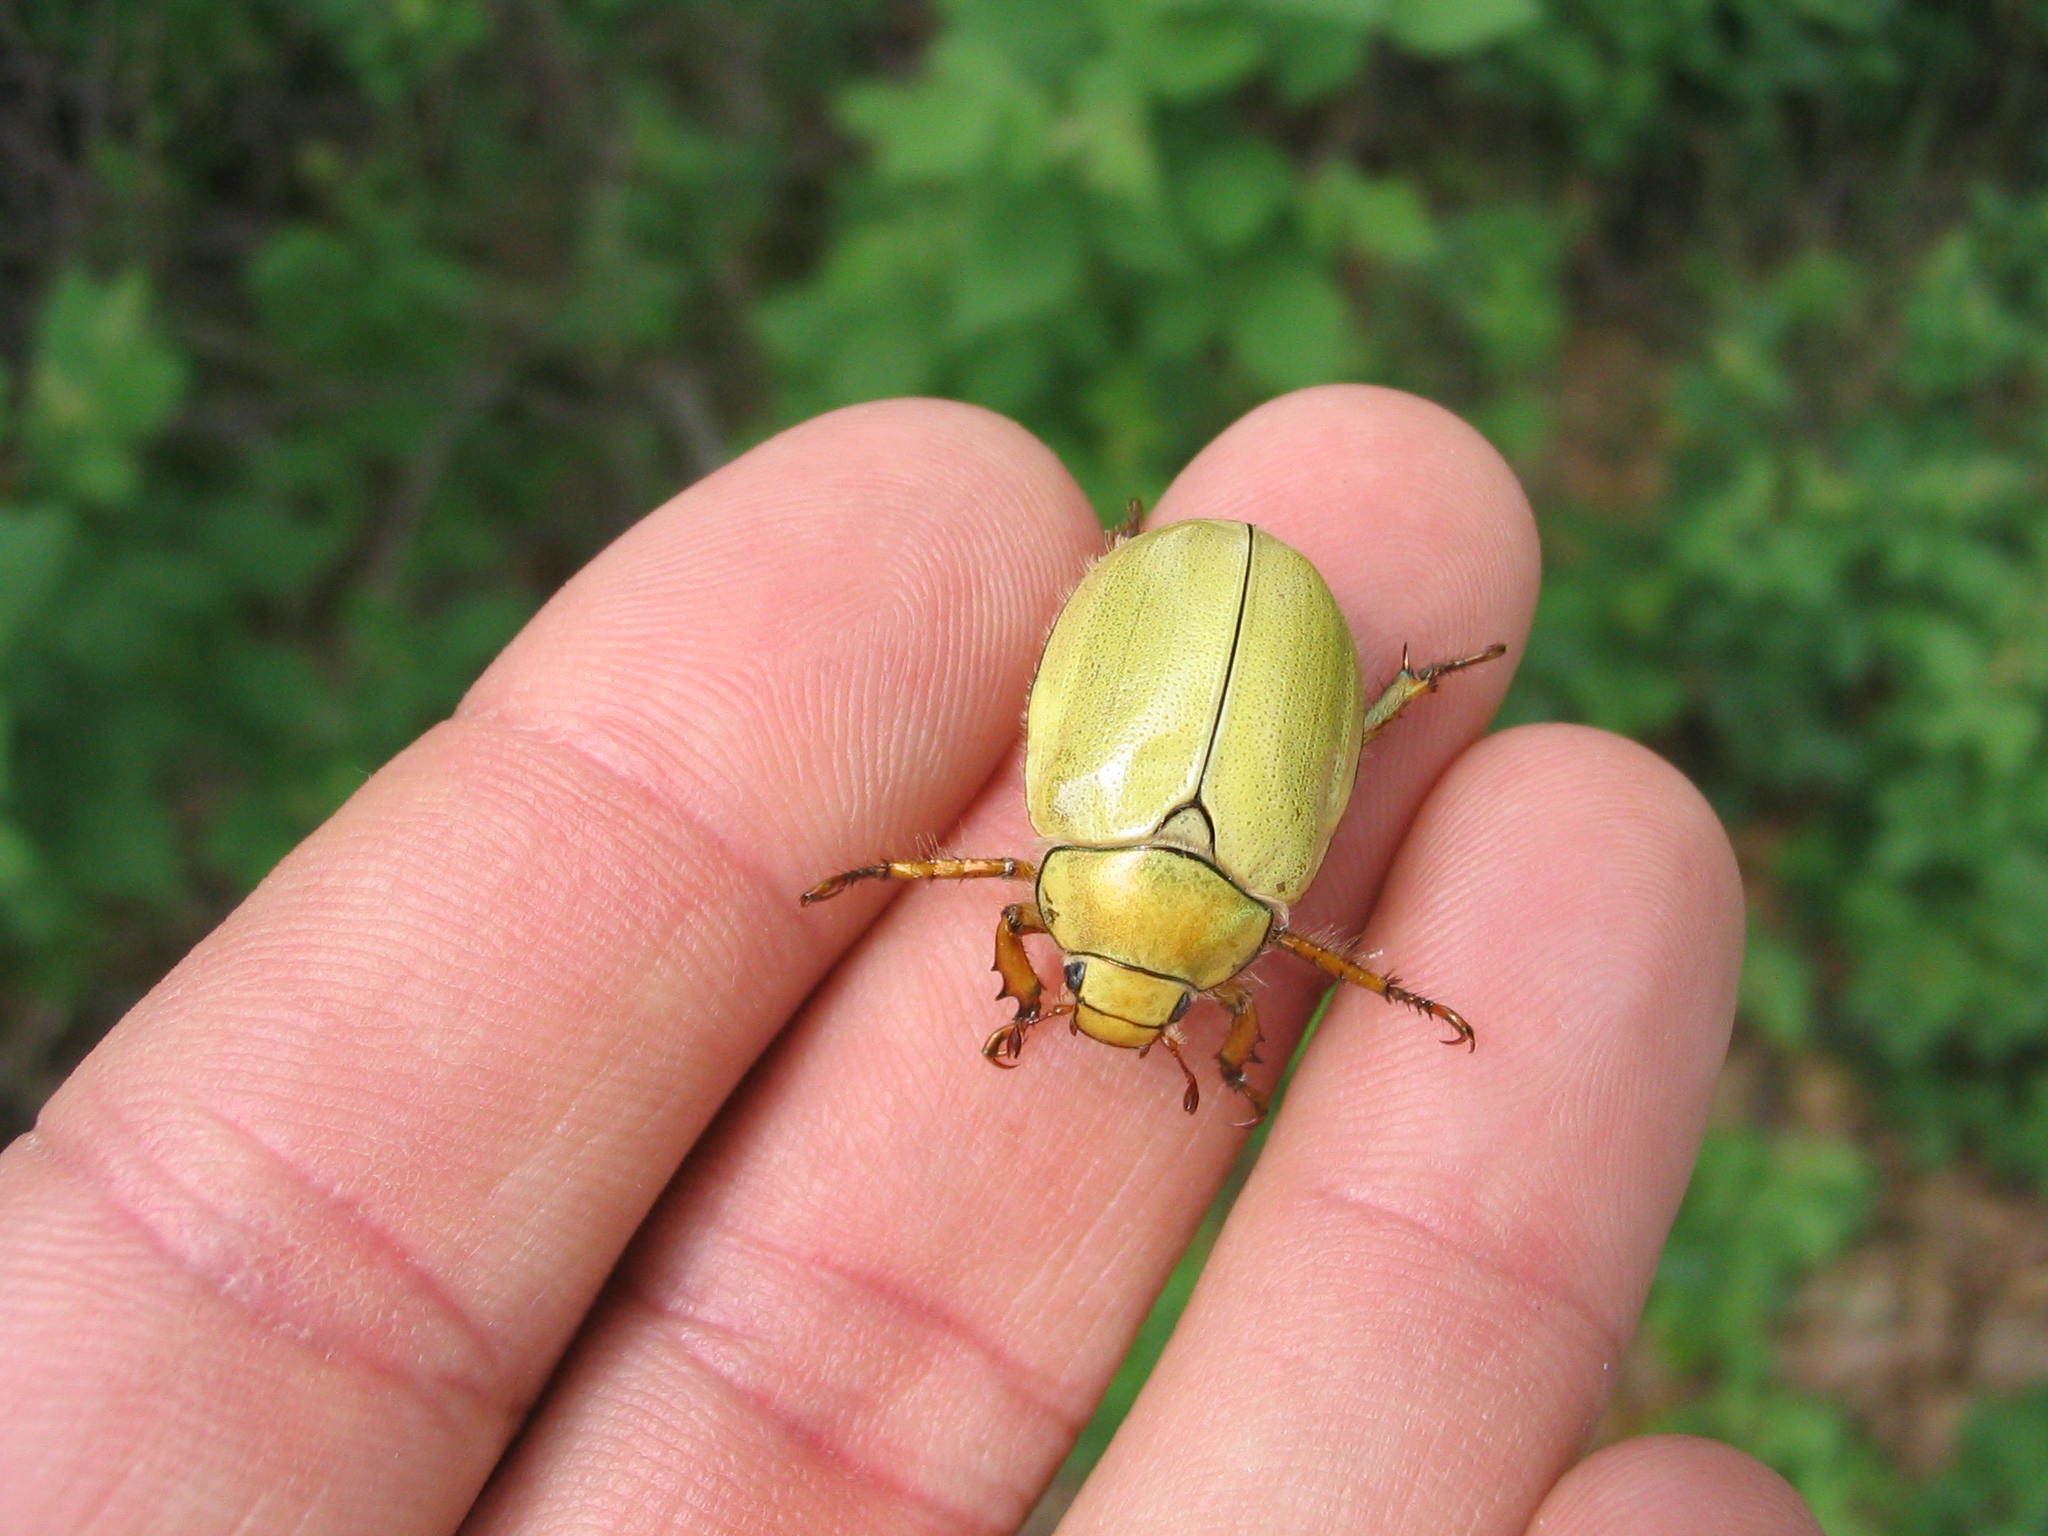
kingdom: Animalia
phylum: Arthropoda
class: Insecta
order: Coleoptera
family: Scarabaeidae
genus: Cotalpa
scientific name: Cotalpa lanigera
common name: Goldsmith beetle
